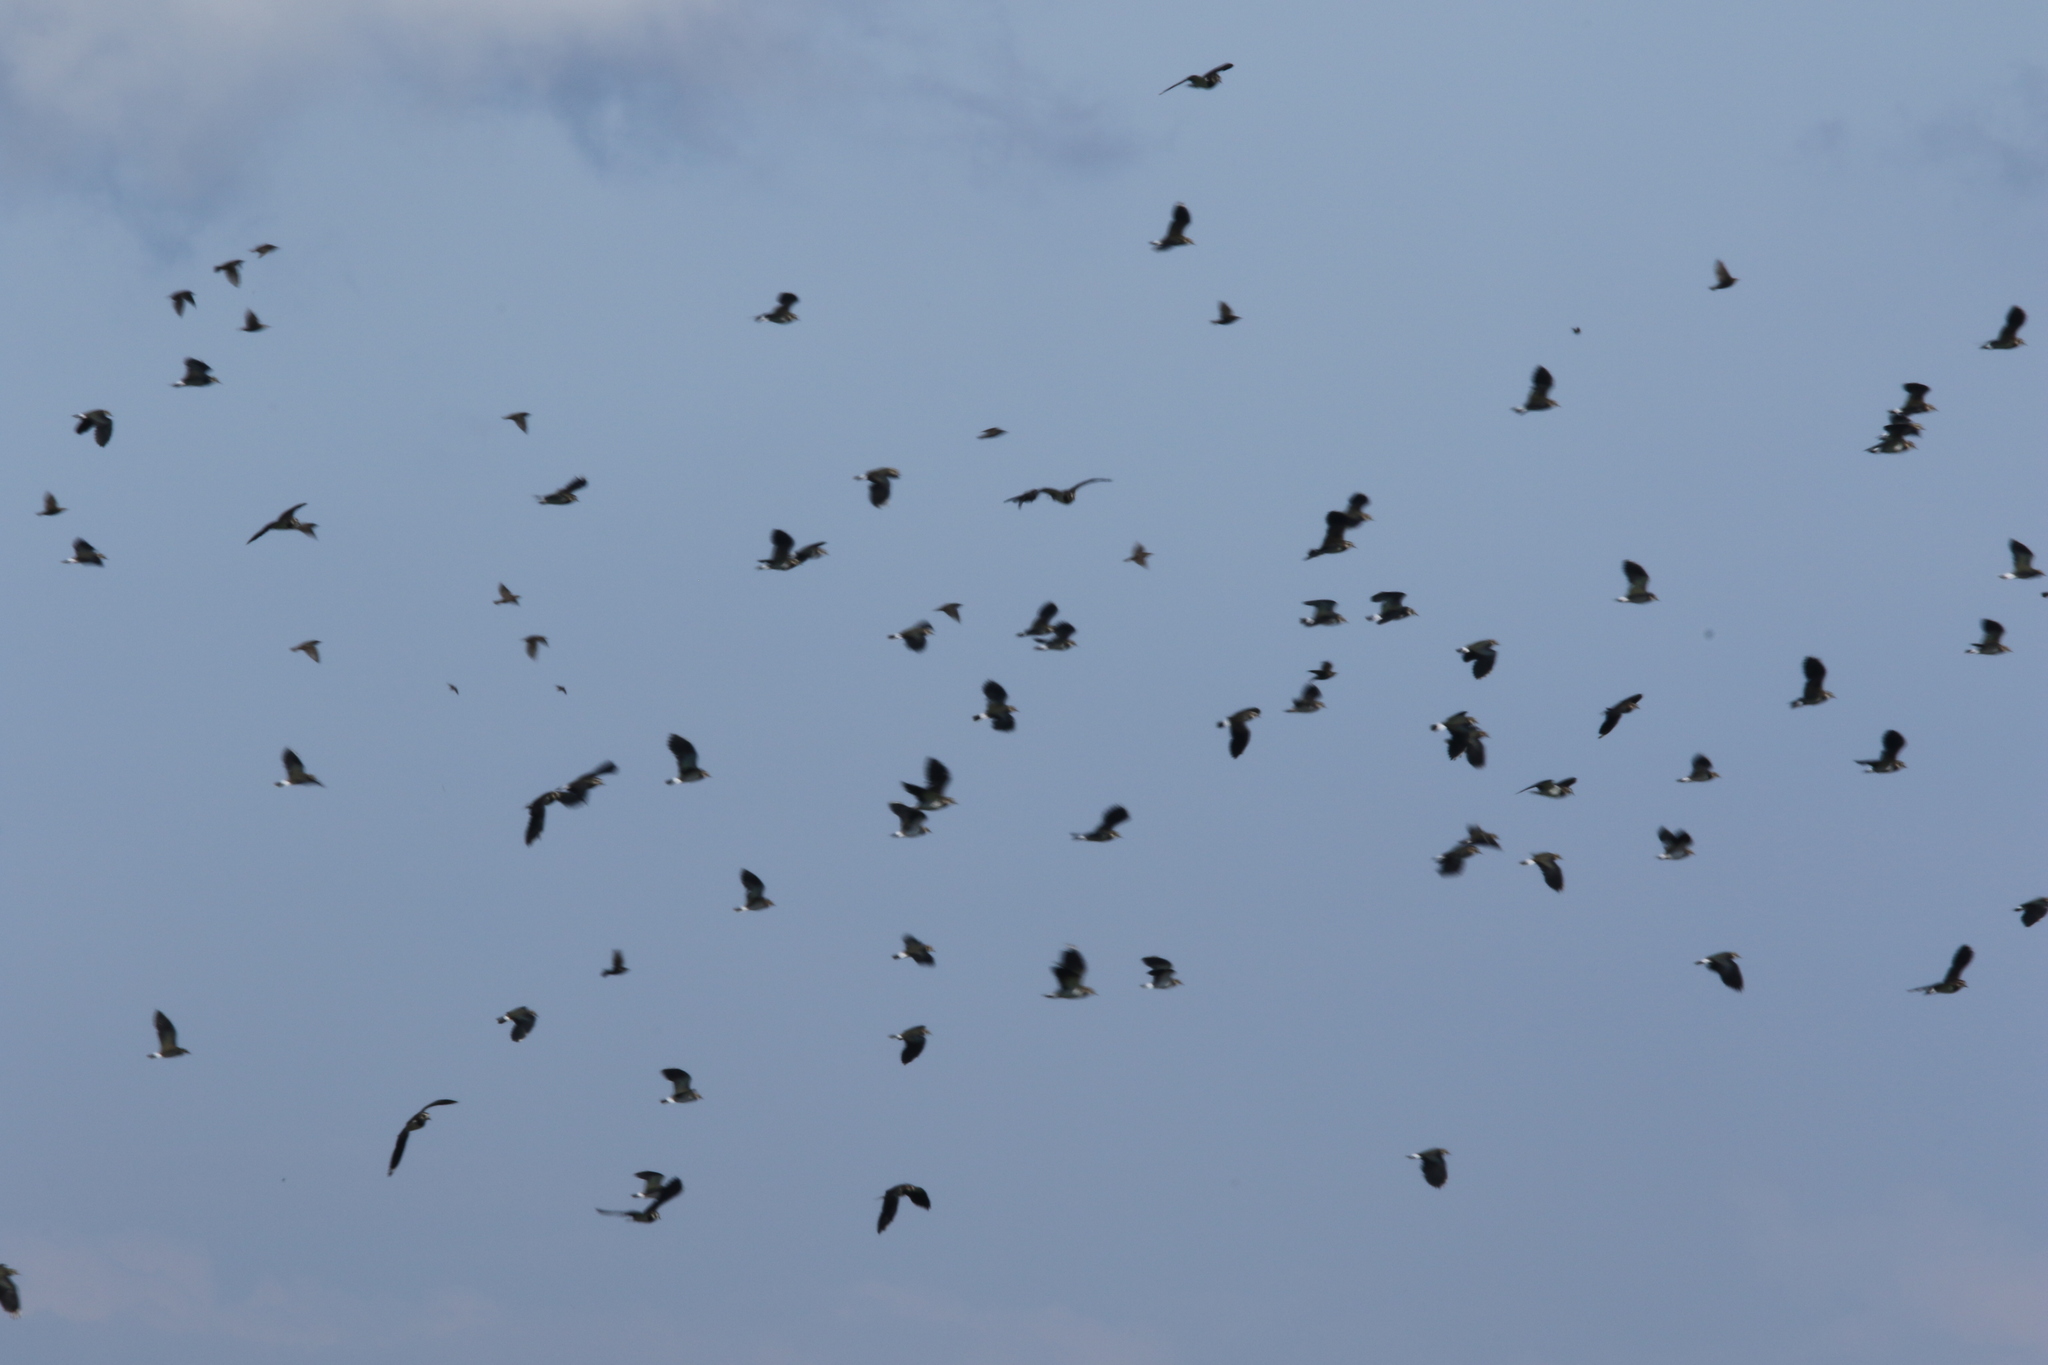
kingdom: Animalia
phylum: Chordata
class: Aves
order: Passeriformes
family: Sturnidae
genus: Sturnus
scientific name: Sturnus vulgaris
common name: Common starling
